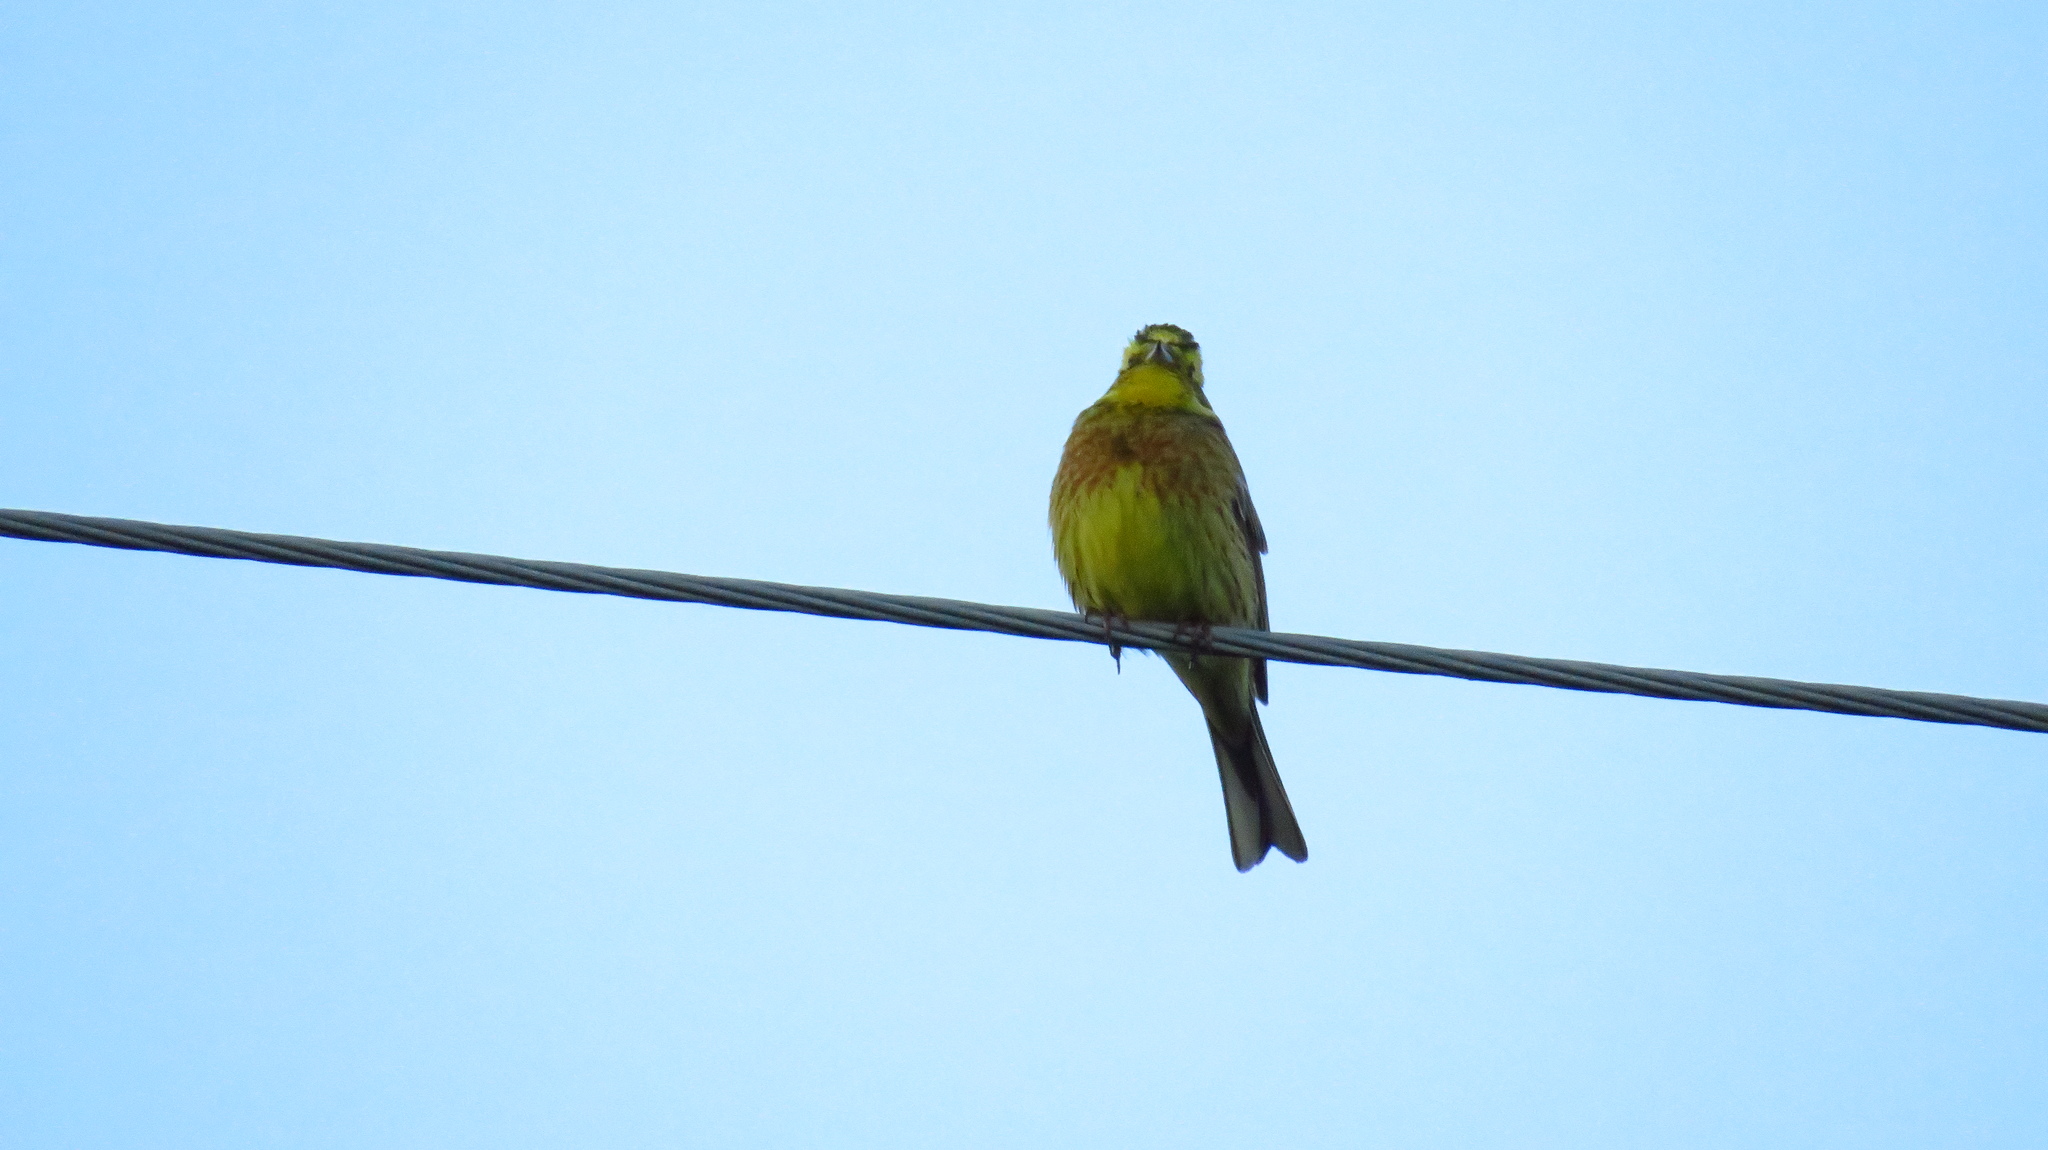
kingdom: Animalia
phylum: Chordata
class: Aves
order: Passeriformes
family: Emberizidae
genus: Emberiza
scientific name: Emberiza citrinella
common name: Yellowhammer
